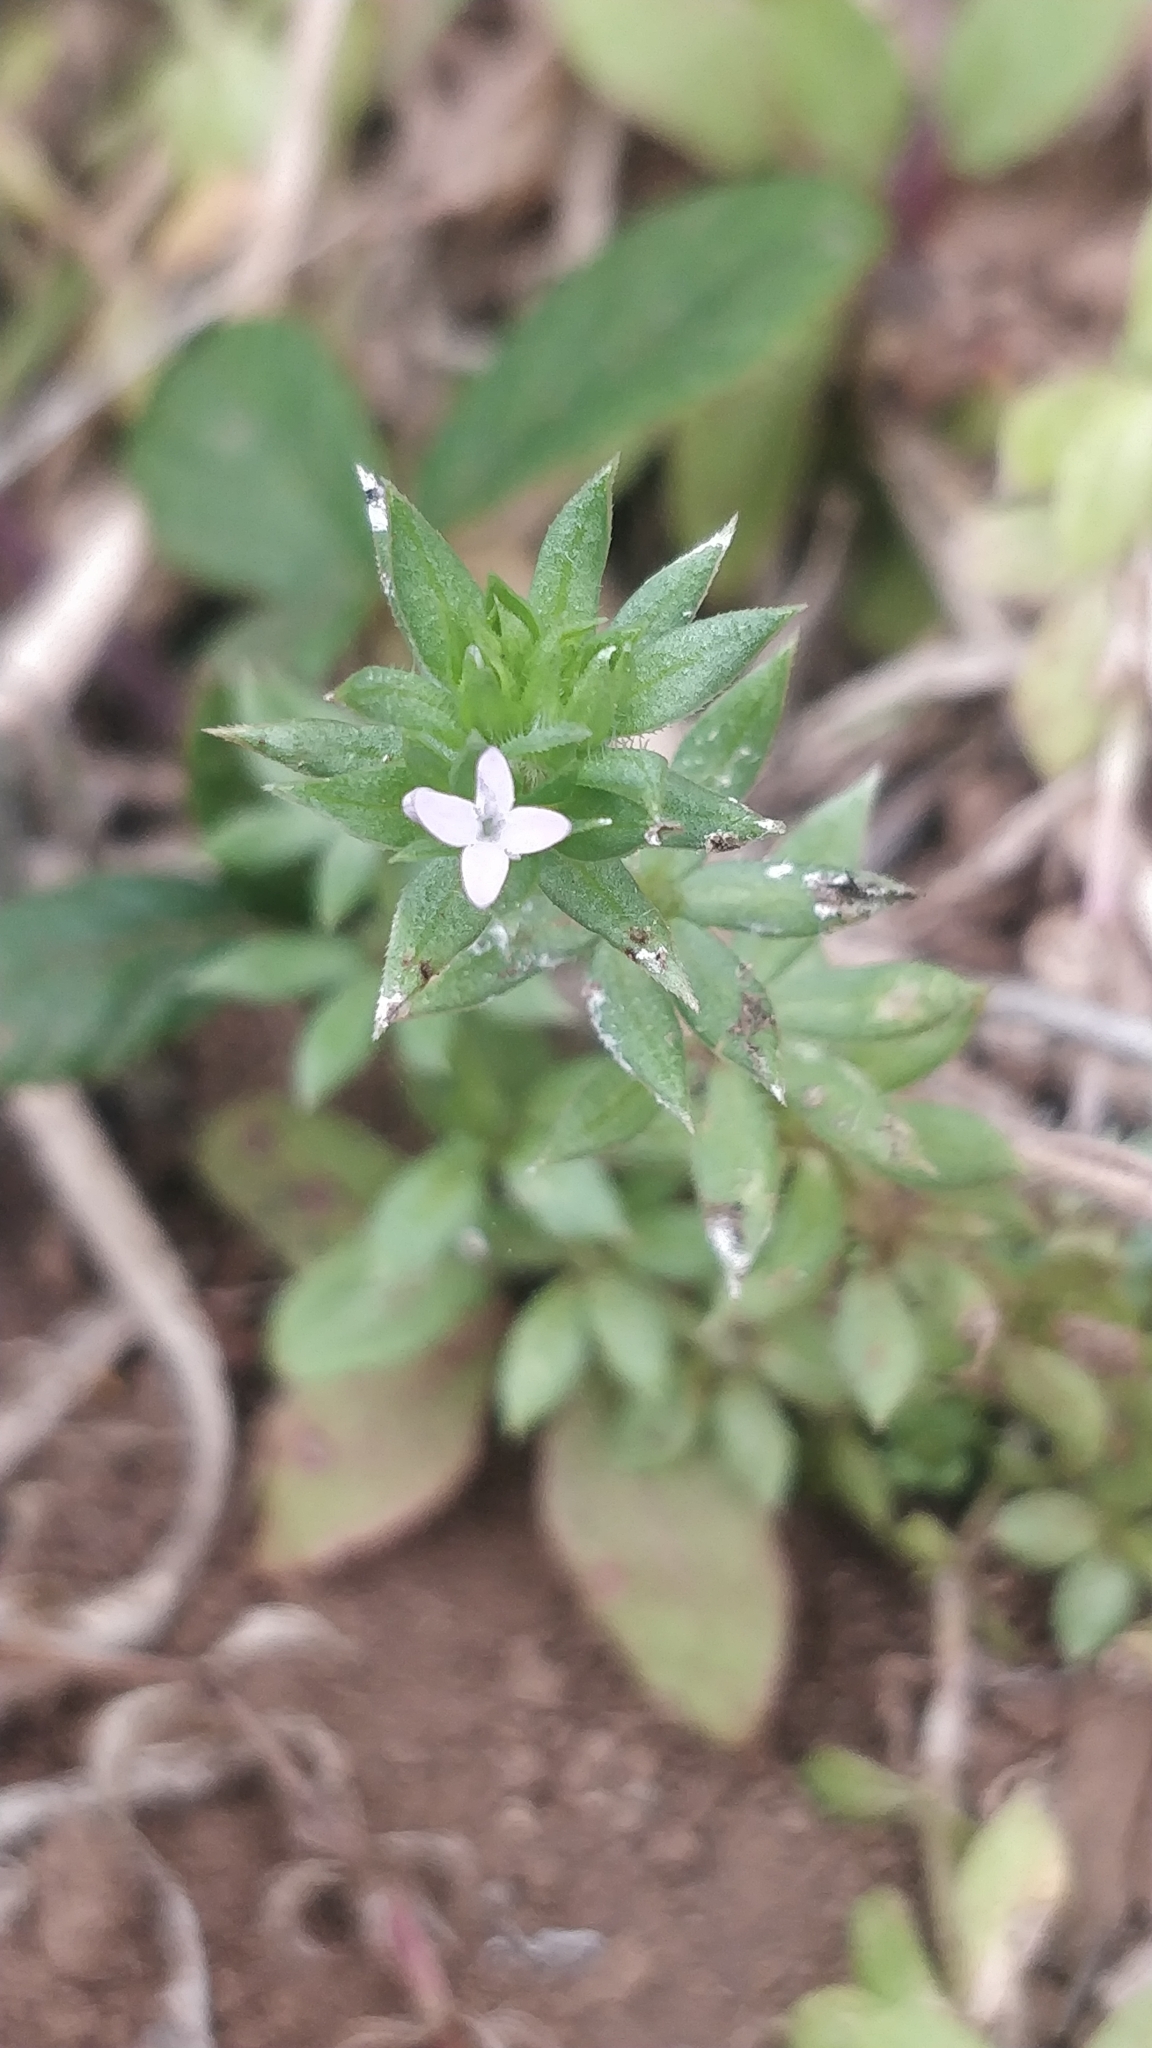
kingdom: Plantae
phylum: Tracheophyta
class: Magnoliopsida
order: Gentianales
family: Rubiaceae
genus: Sherardia
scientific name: Sherardia arvensis
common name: Field madder
